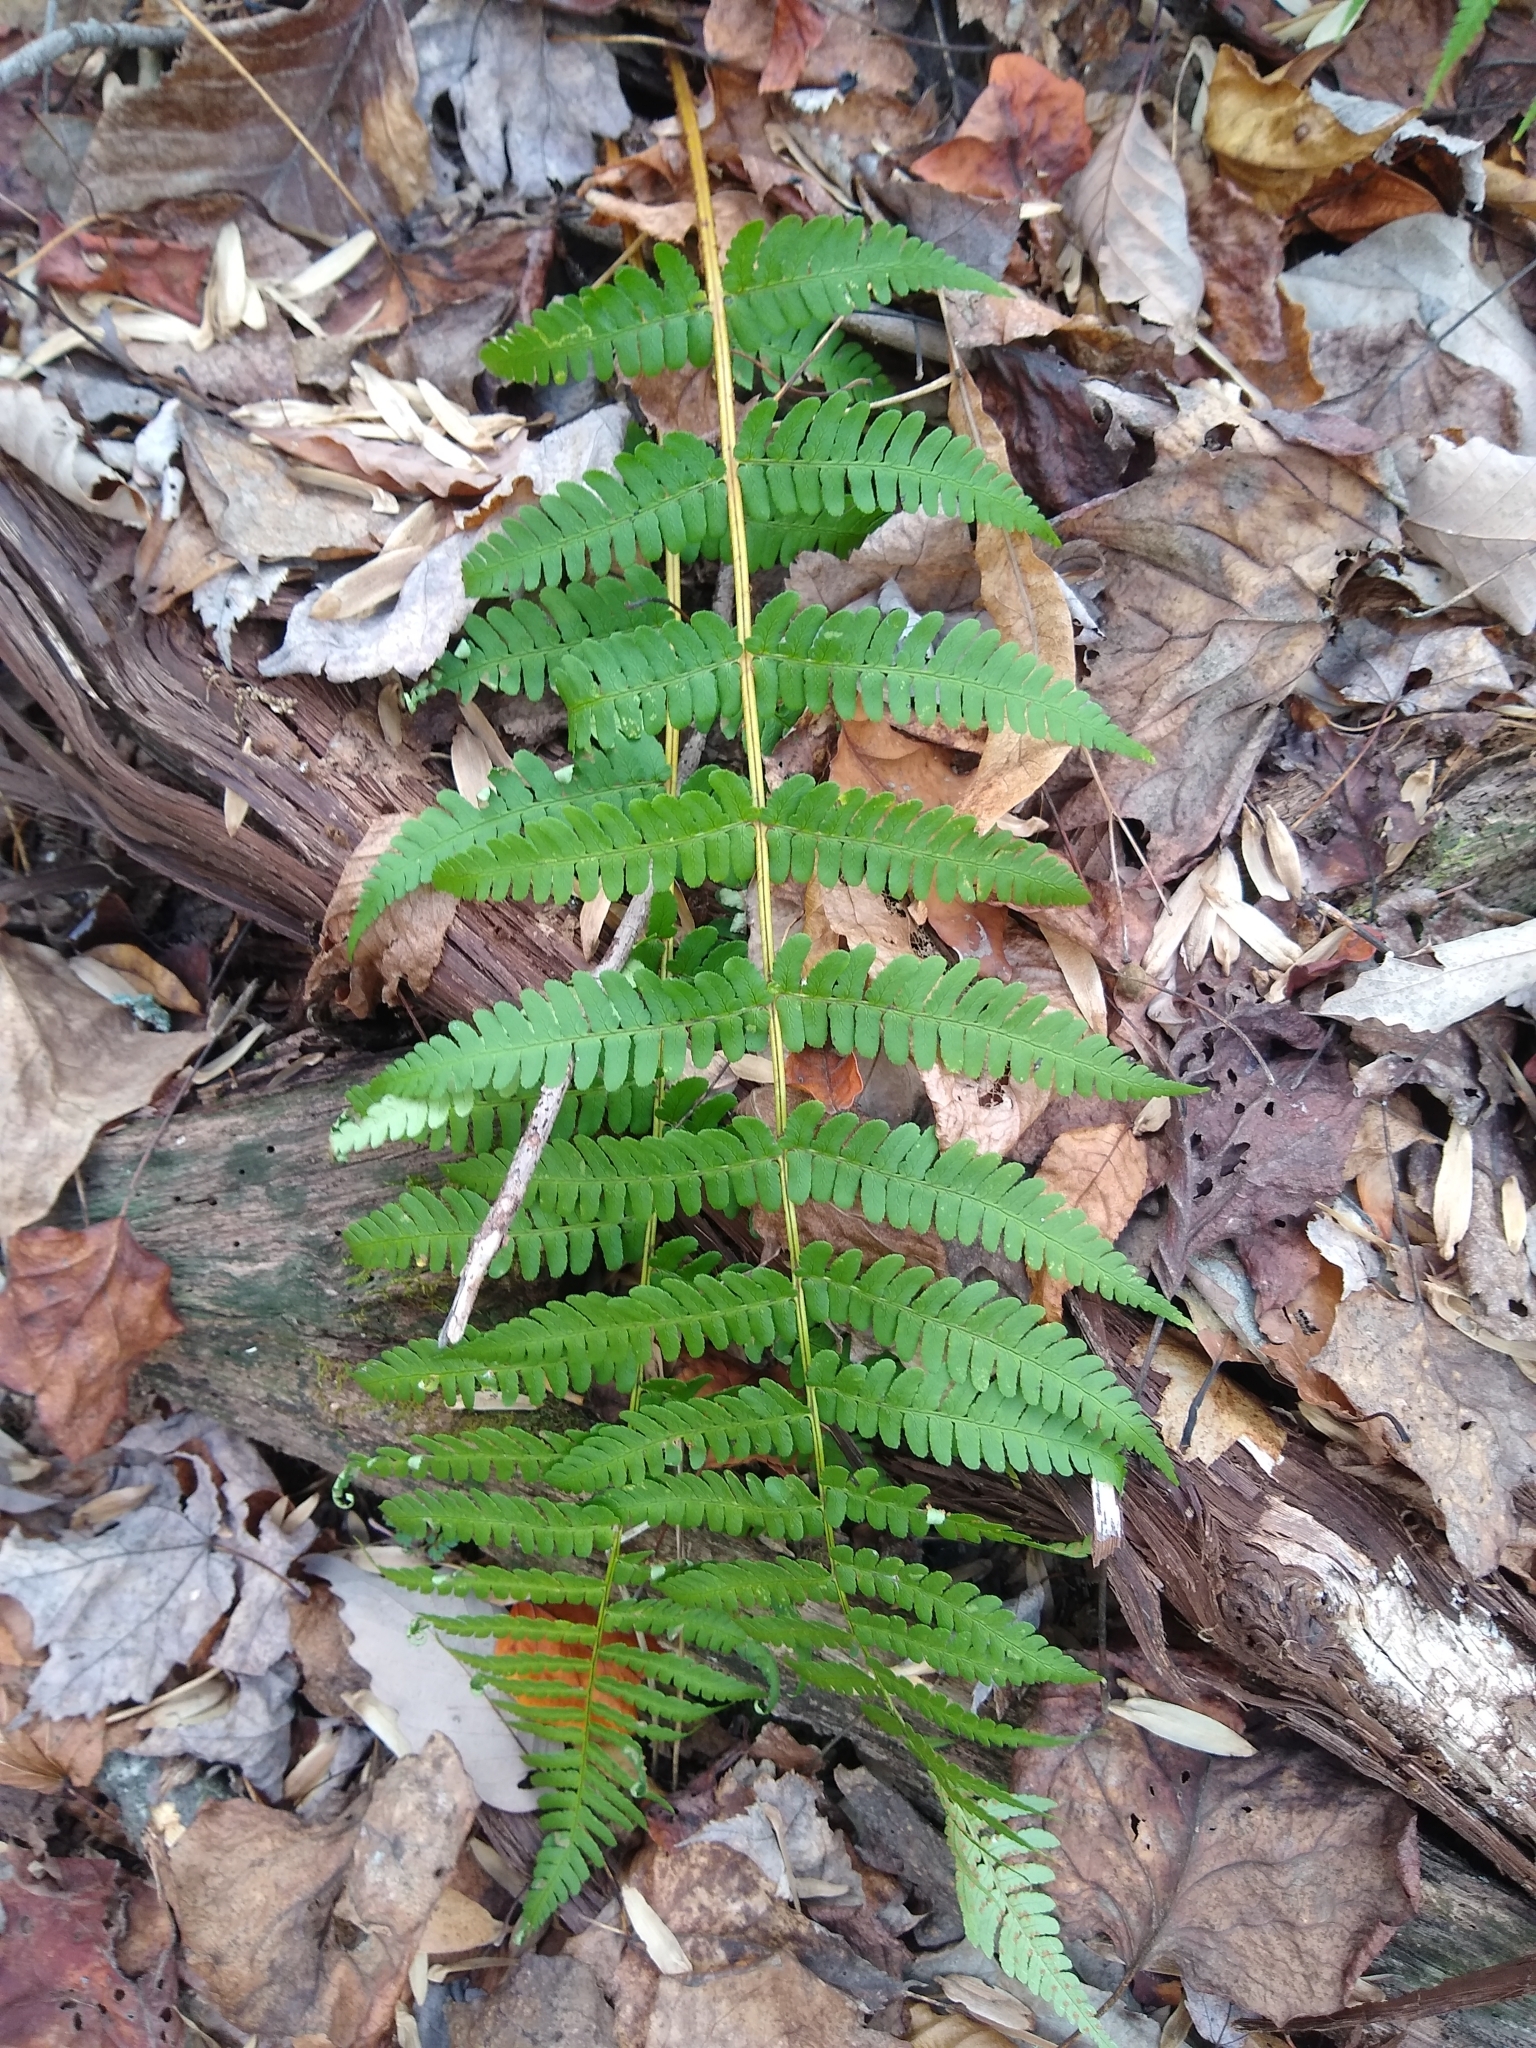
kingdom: Plantae
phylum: Tracheophyta
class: Polypodiopsida
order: Polypodiales
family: Dryopteridaceae
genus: Dryopteris
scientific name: Dryopteris marginalis
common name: Marginal wood fern
